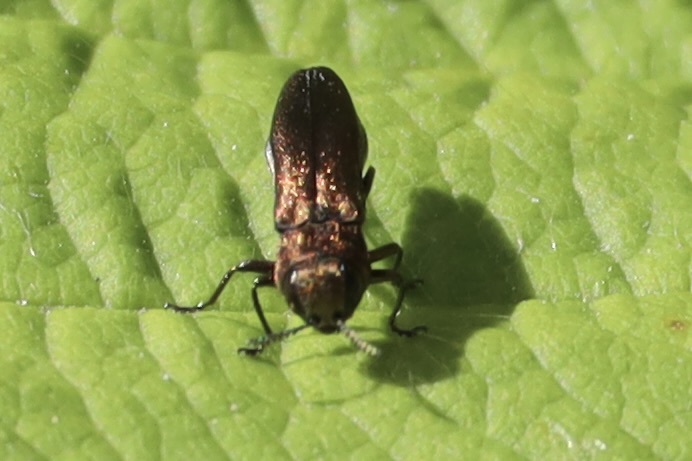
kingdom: Animalia
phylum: Arthropoda
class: Insecta
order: Coleoptera
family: Buprestidae
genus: Agrilus
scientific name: Agrilus cuprescens
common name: Rose stem girdler
